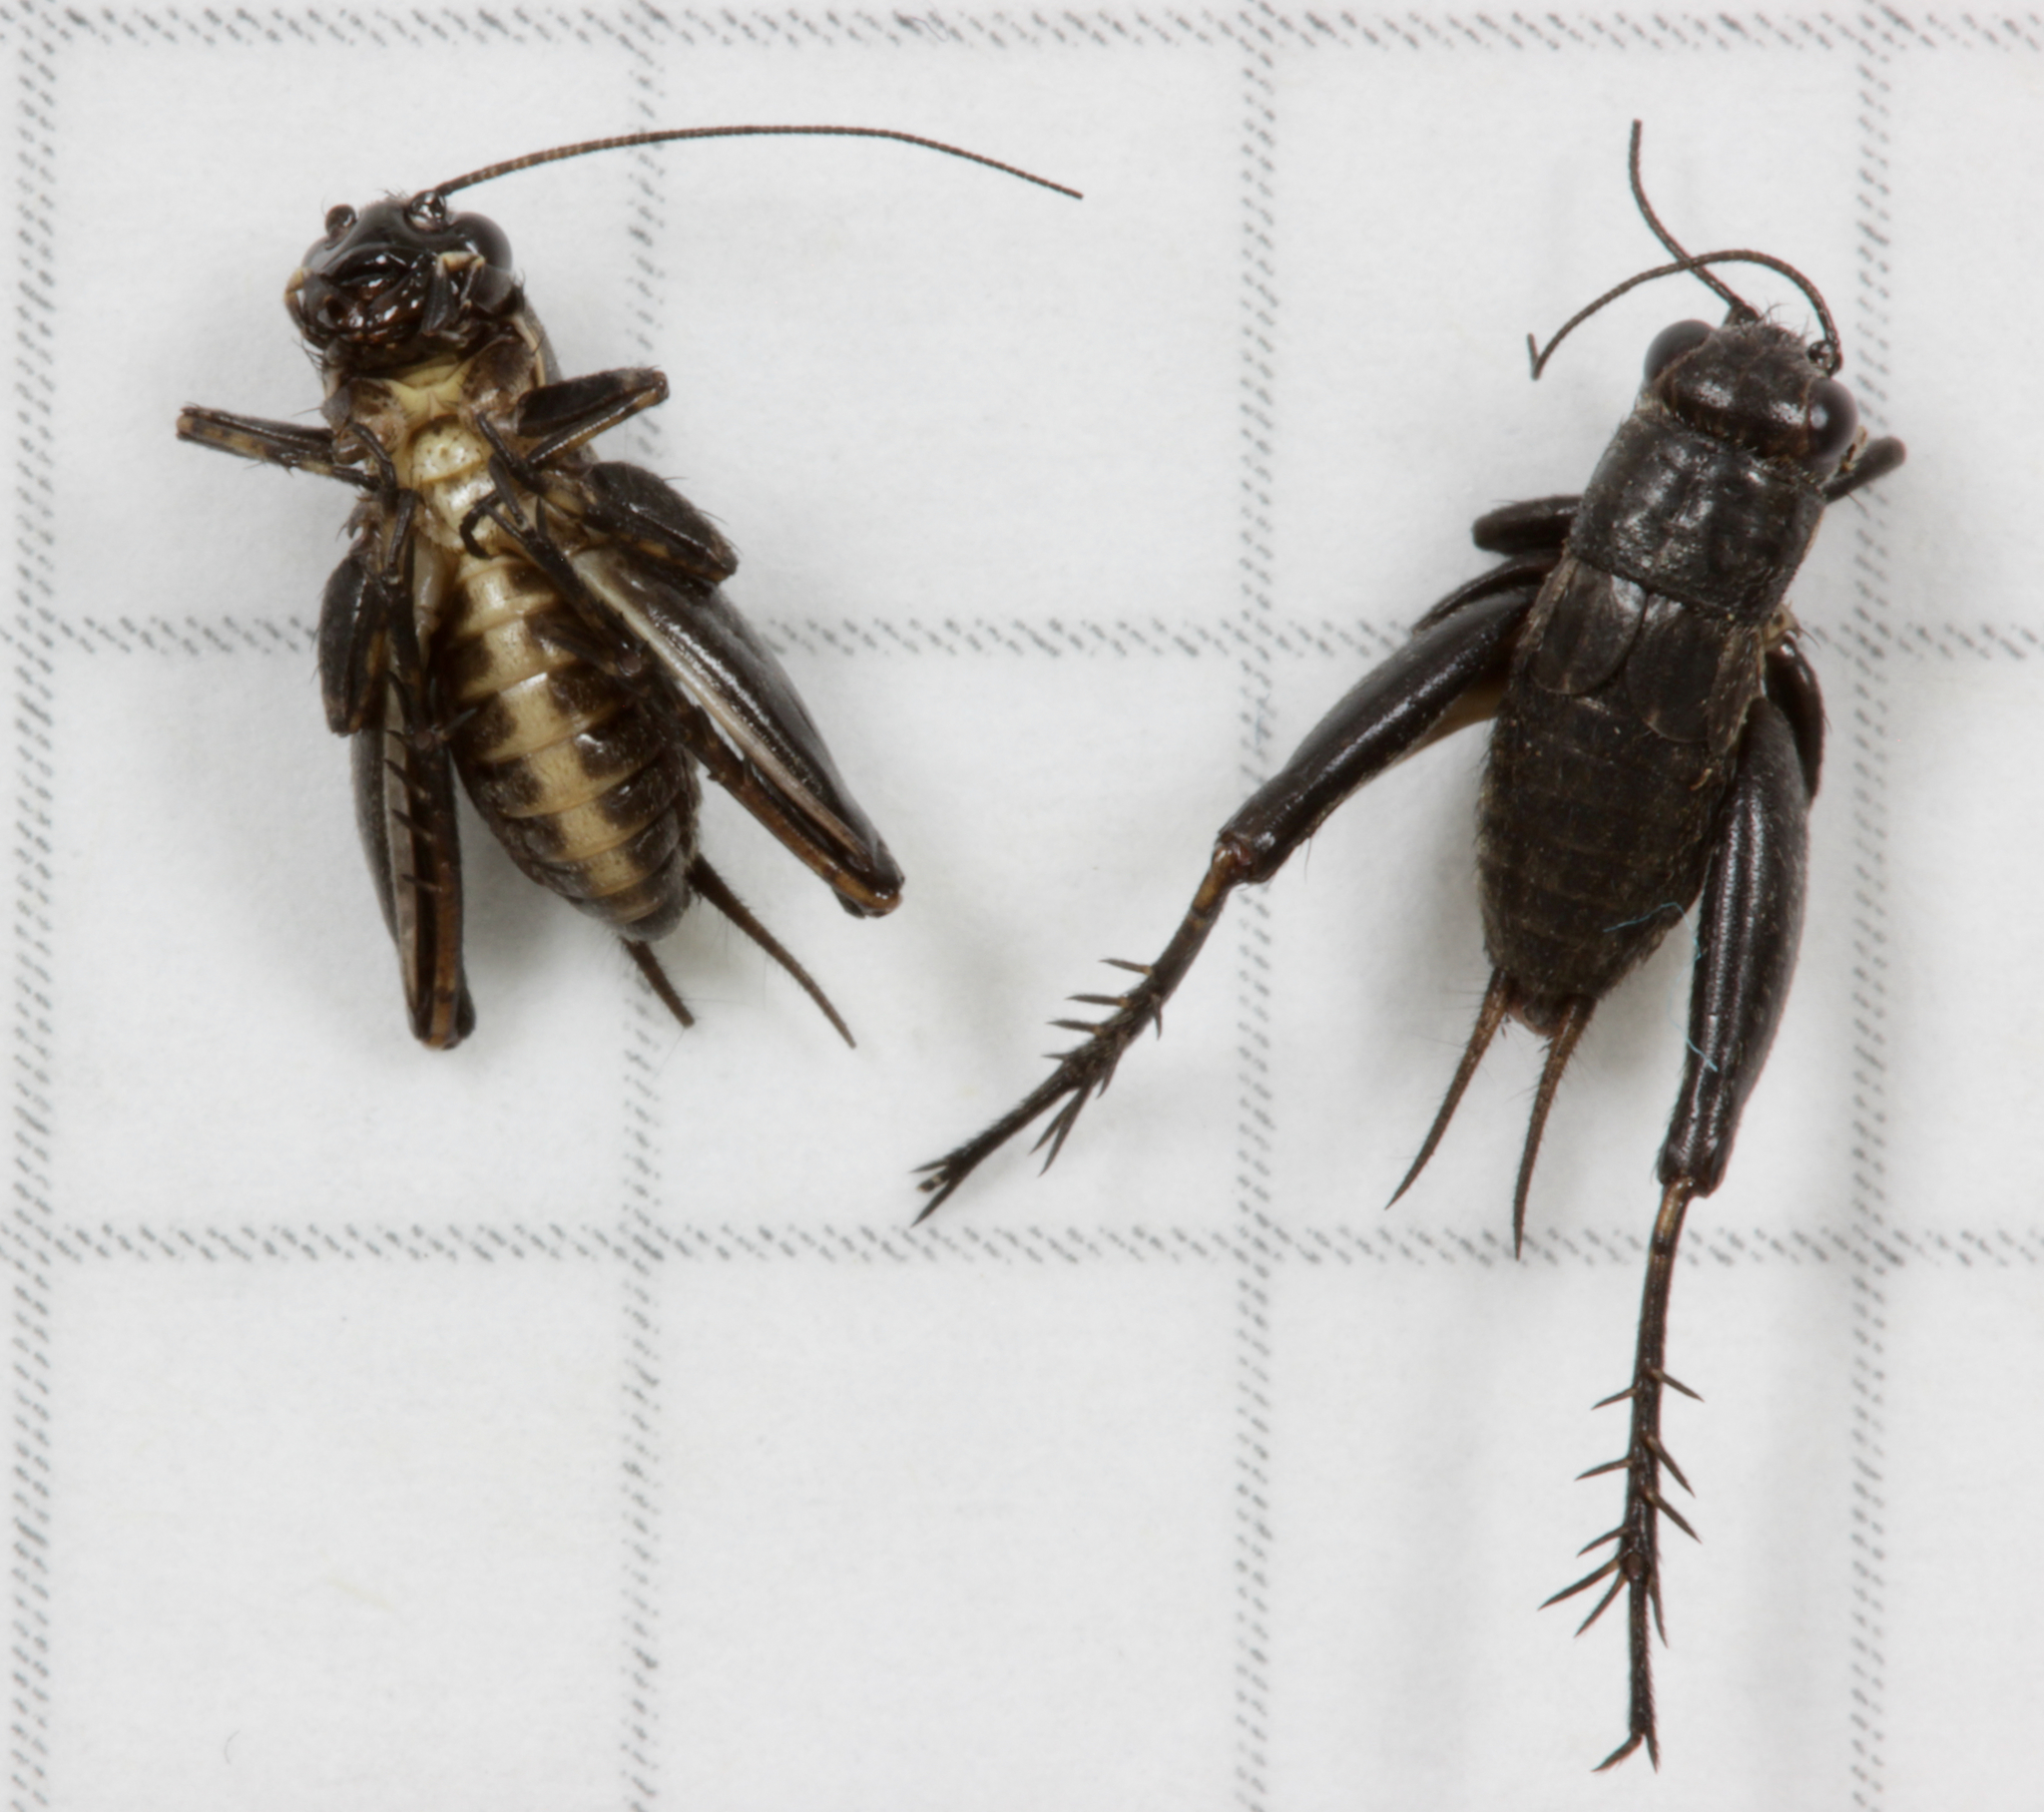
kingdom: Animalia
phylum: Arthropoda
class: Insecta
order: Orthoptera
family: Trigonidiidae
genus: Bobilla
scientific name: Bobilla nigrovus
